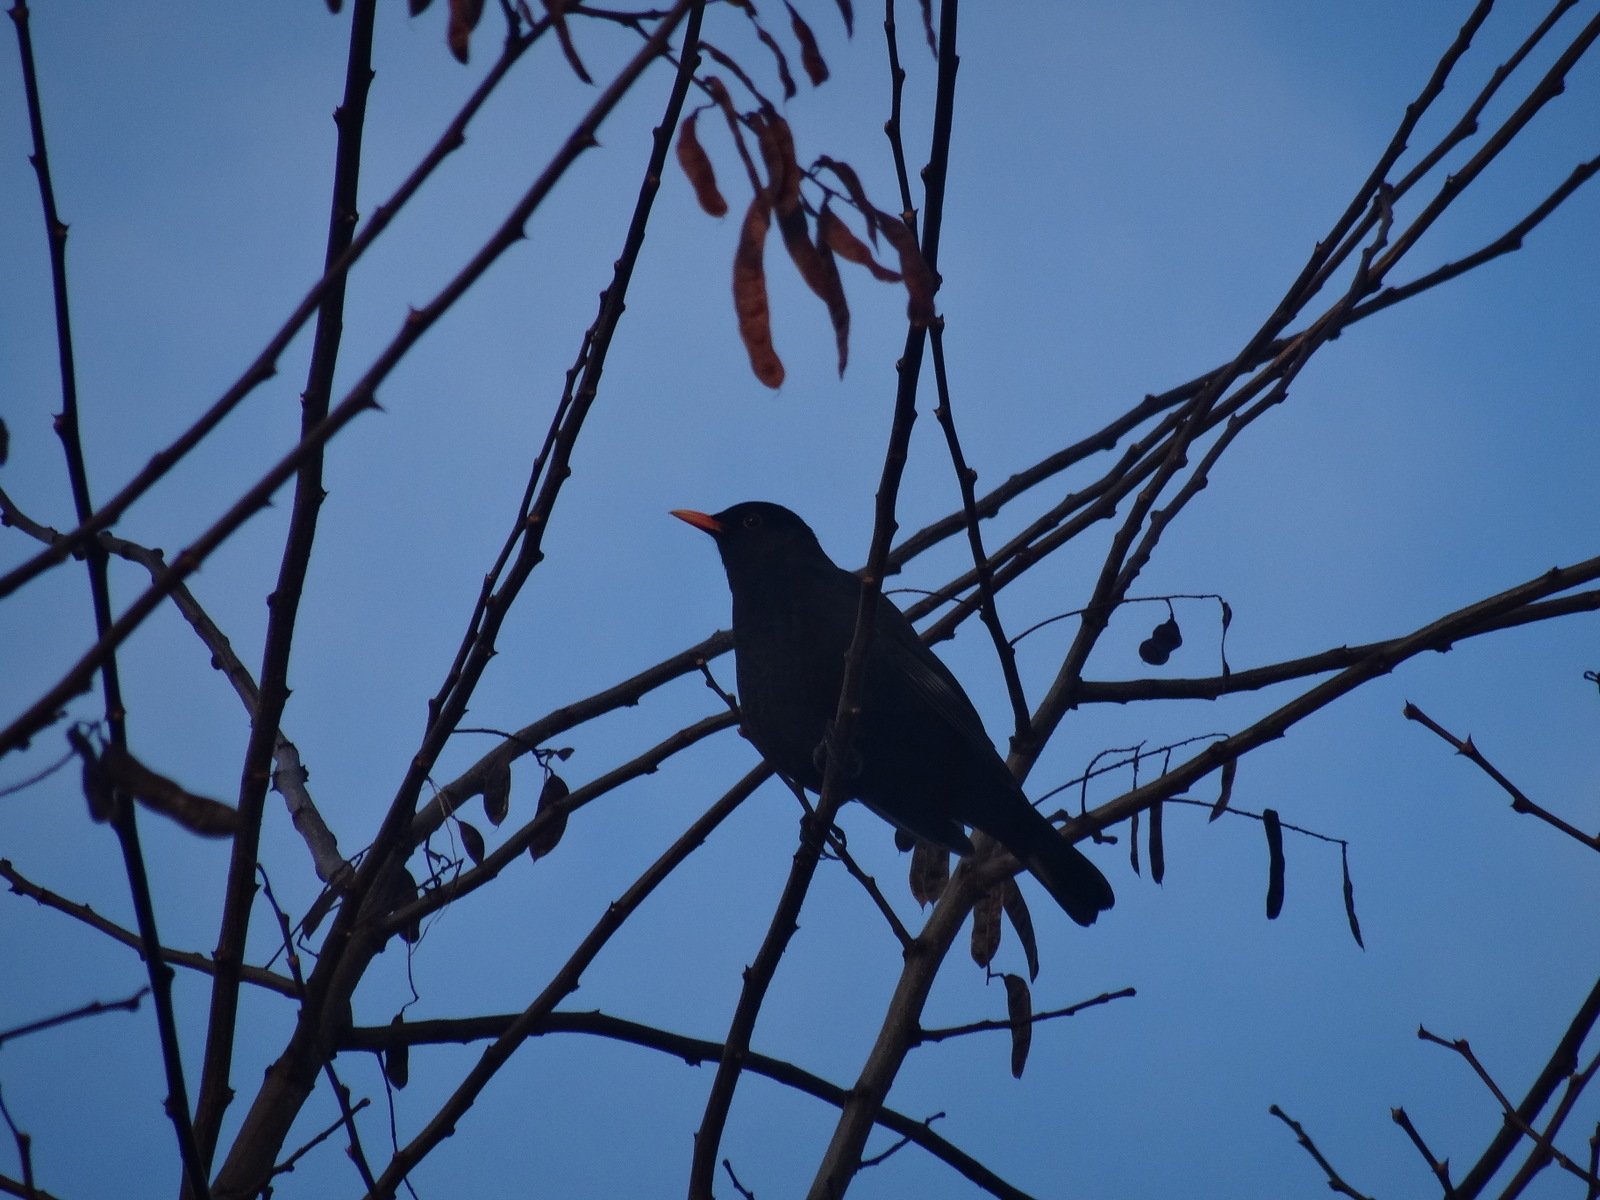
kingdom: Animalia
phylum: Chordata
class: Aves
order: Passeriformes
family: Turdidae
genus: Turdus
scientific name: Turdus merula
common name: Common blackbird
